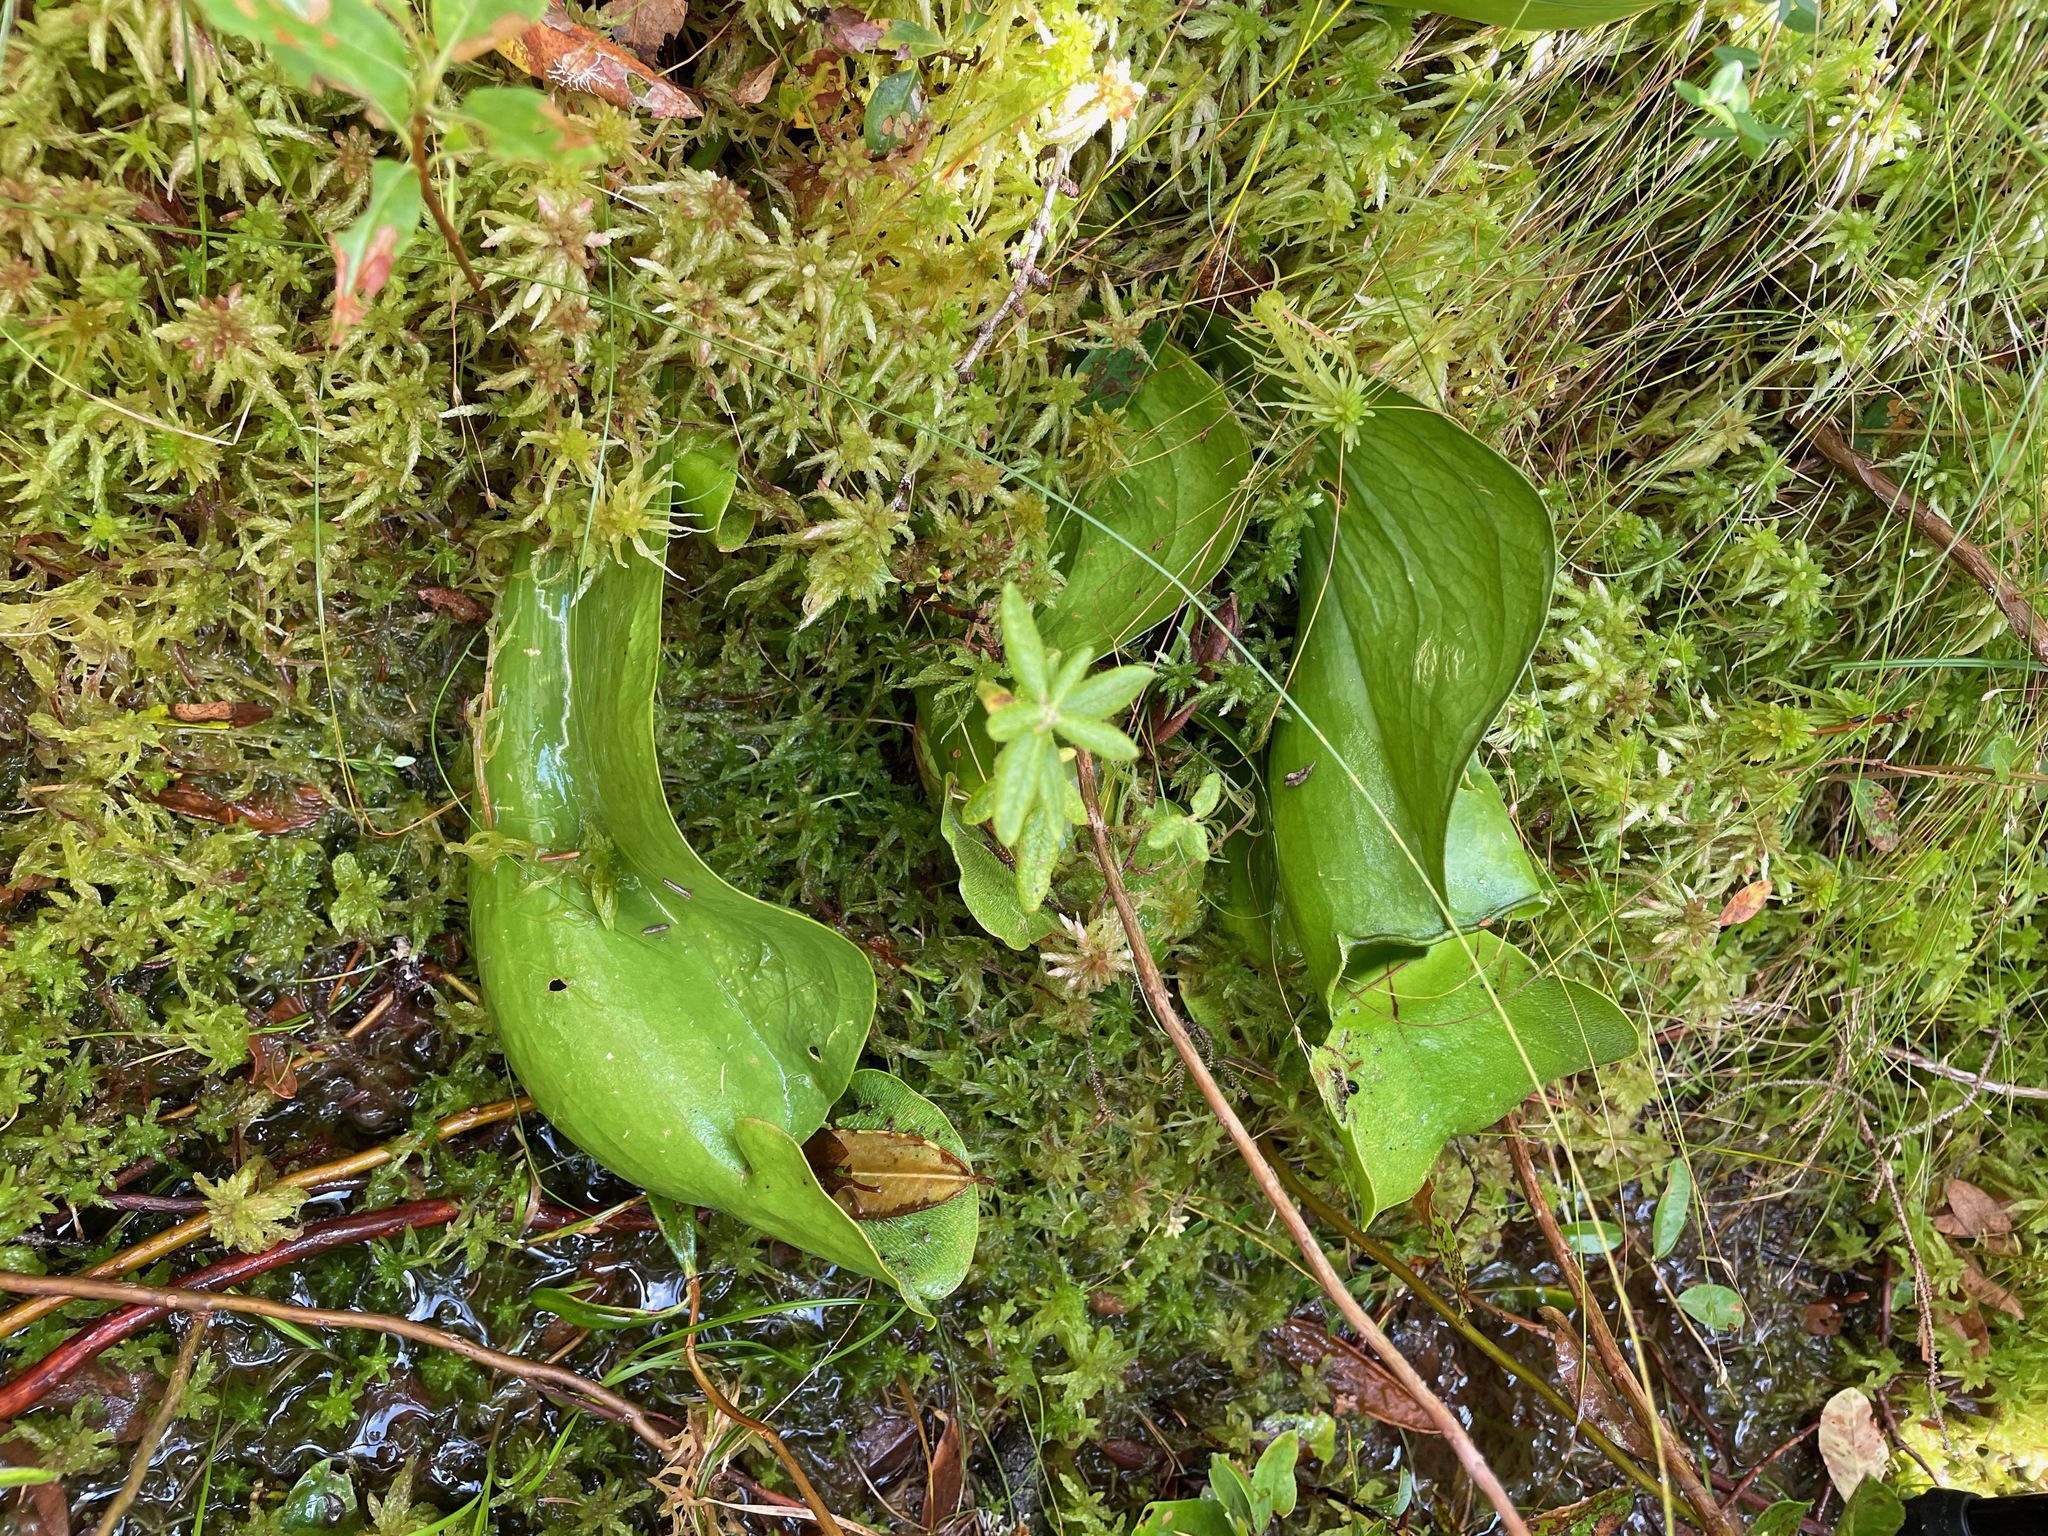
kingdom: Plantae
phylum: Tracheophyta
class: Magnoliopsida
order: Ericales
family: Sarraceniaceae
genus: Sarracenia
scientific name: Sarracenia purpurea
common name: Pitcherplant
